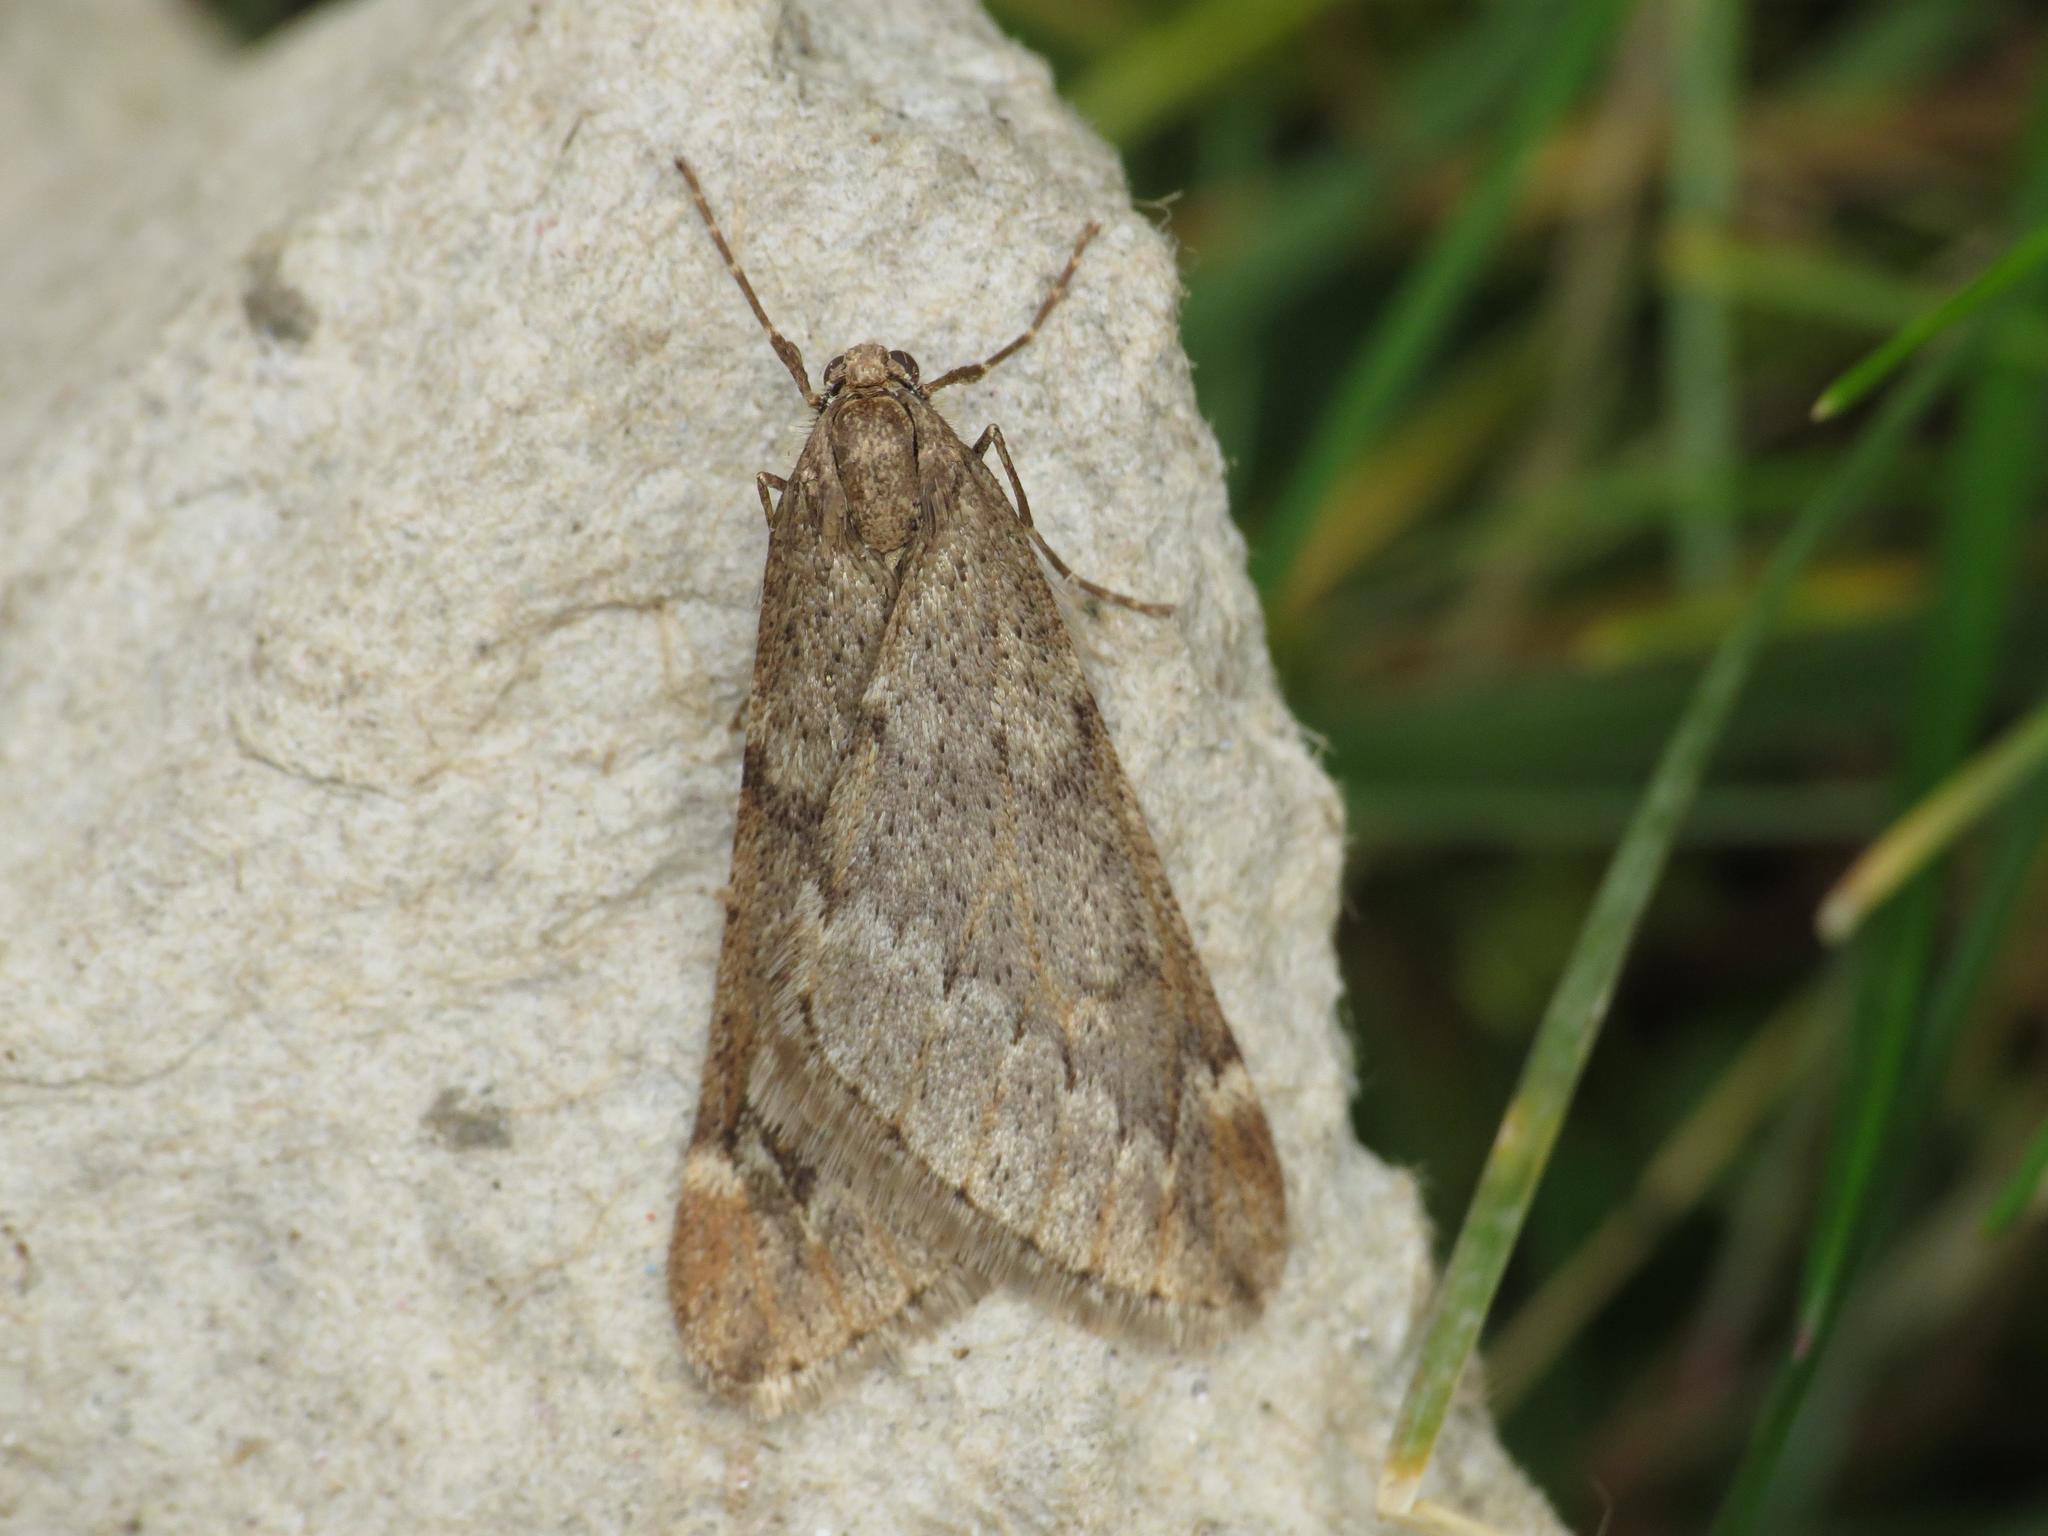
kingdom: Animalia
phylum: Arthropoda
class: Insecta
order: Lepidoptera
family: Geometridae
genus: Alsophila
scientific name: Alsophila aescularia
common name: March moth
